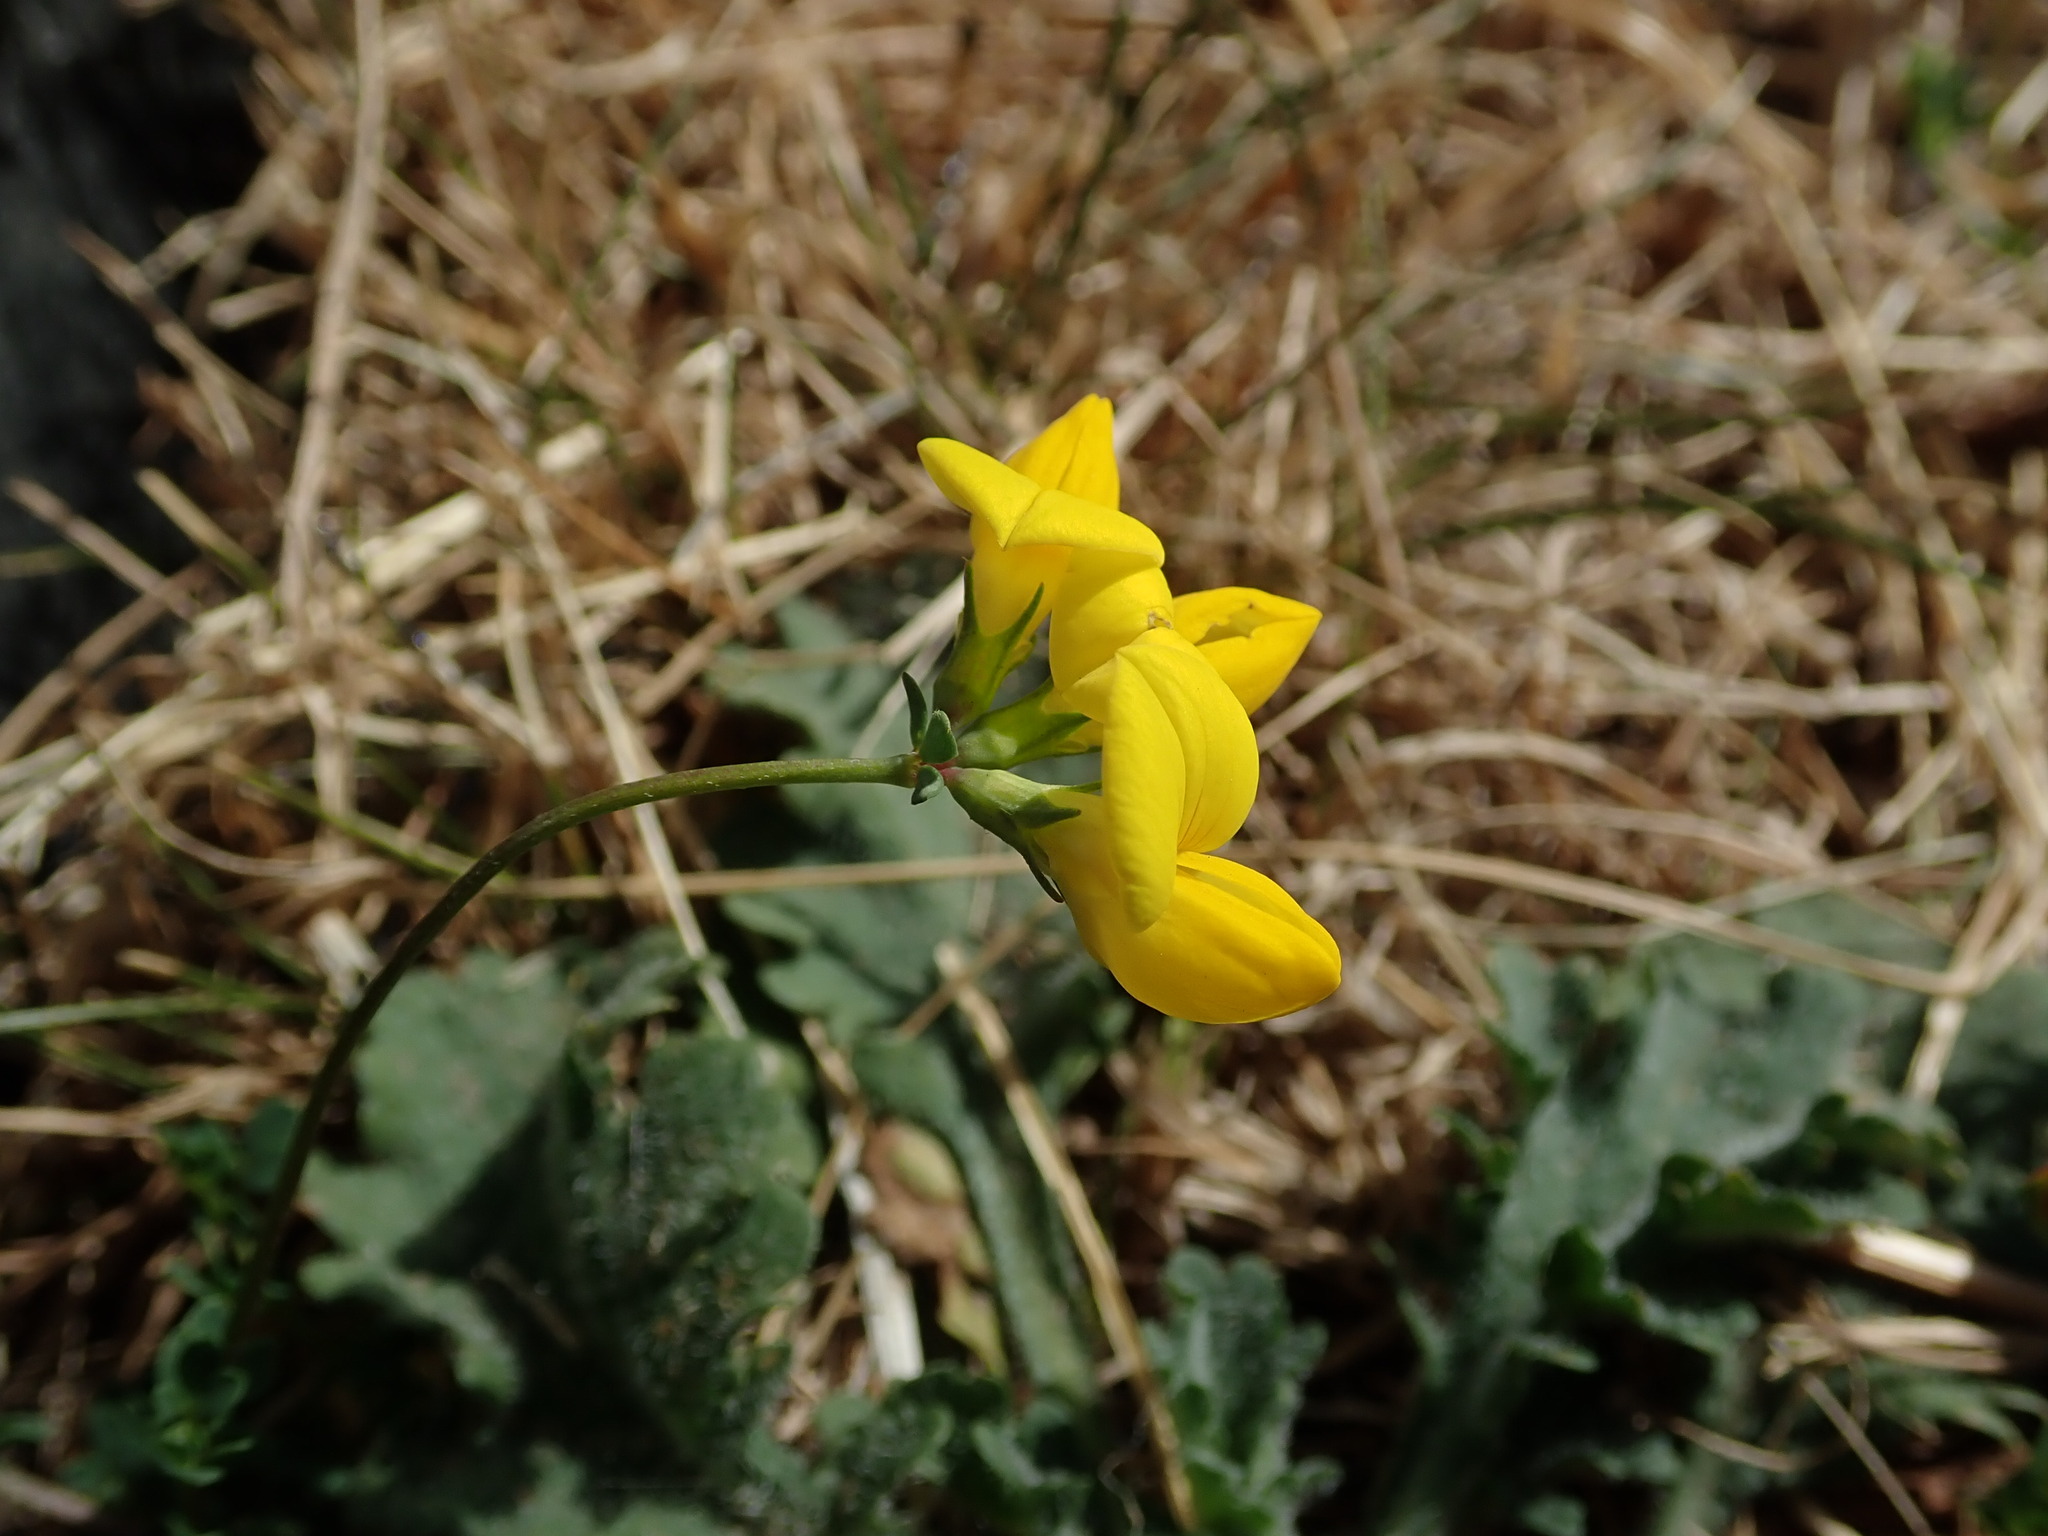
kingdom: Plantae
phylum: Tracheophyta
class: Magnoliopsida
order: Fabales
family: Fabaceae
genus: Lotus
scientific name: Lotus corniculatus
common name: Common bird's-foot-trefoil
